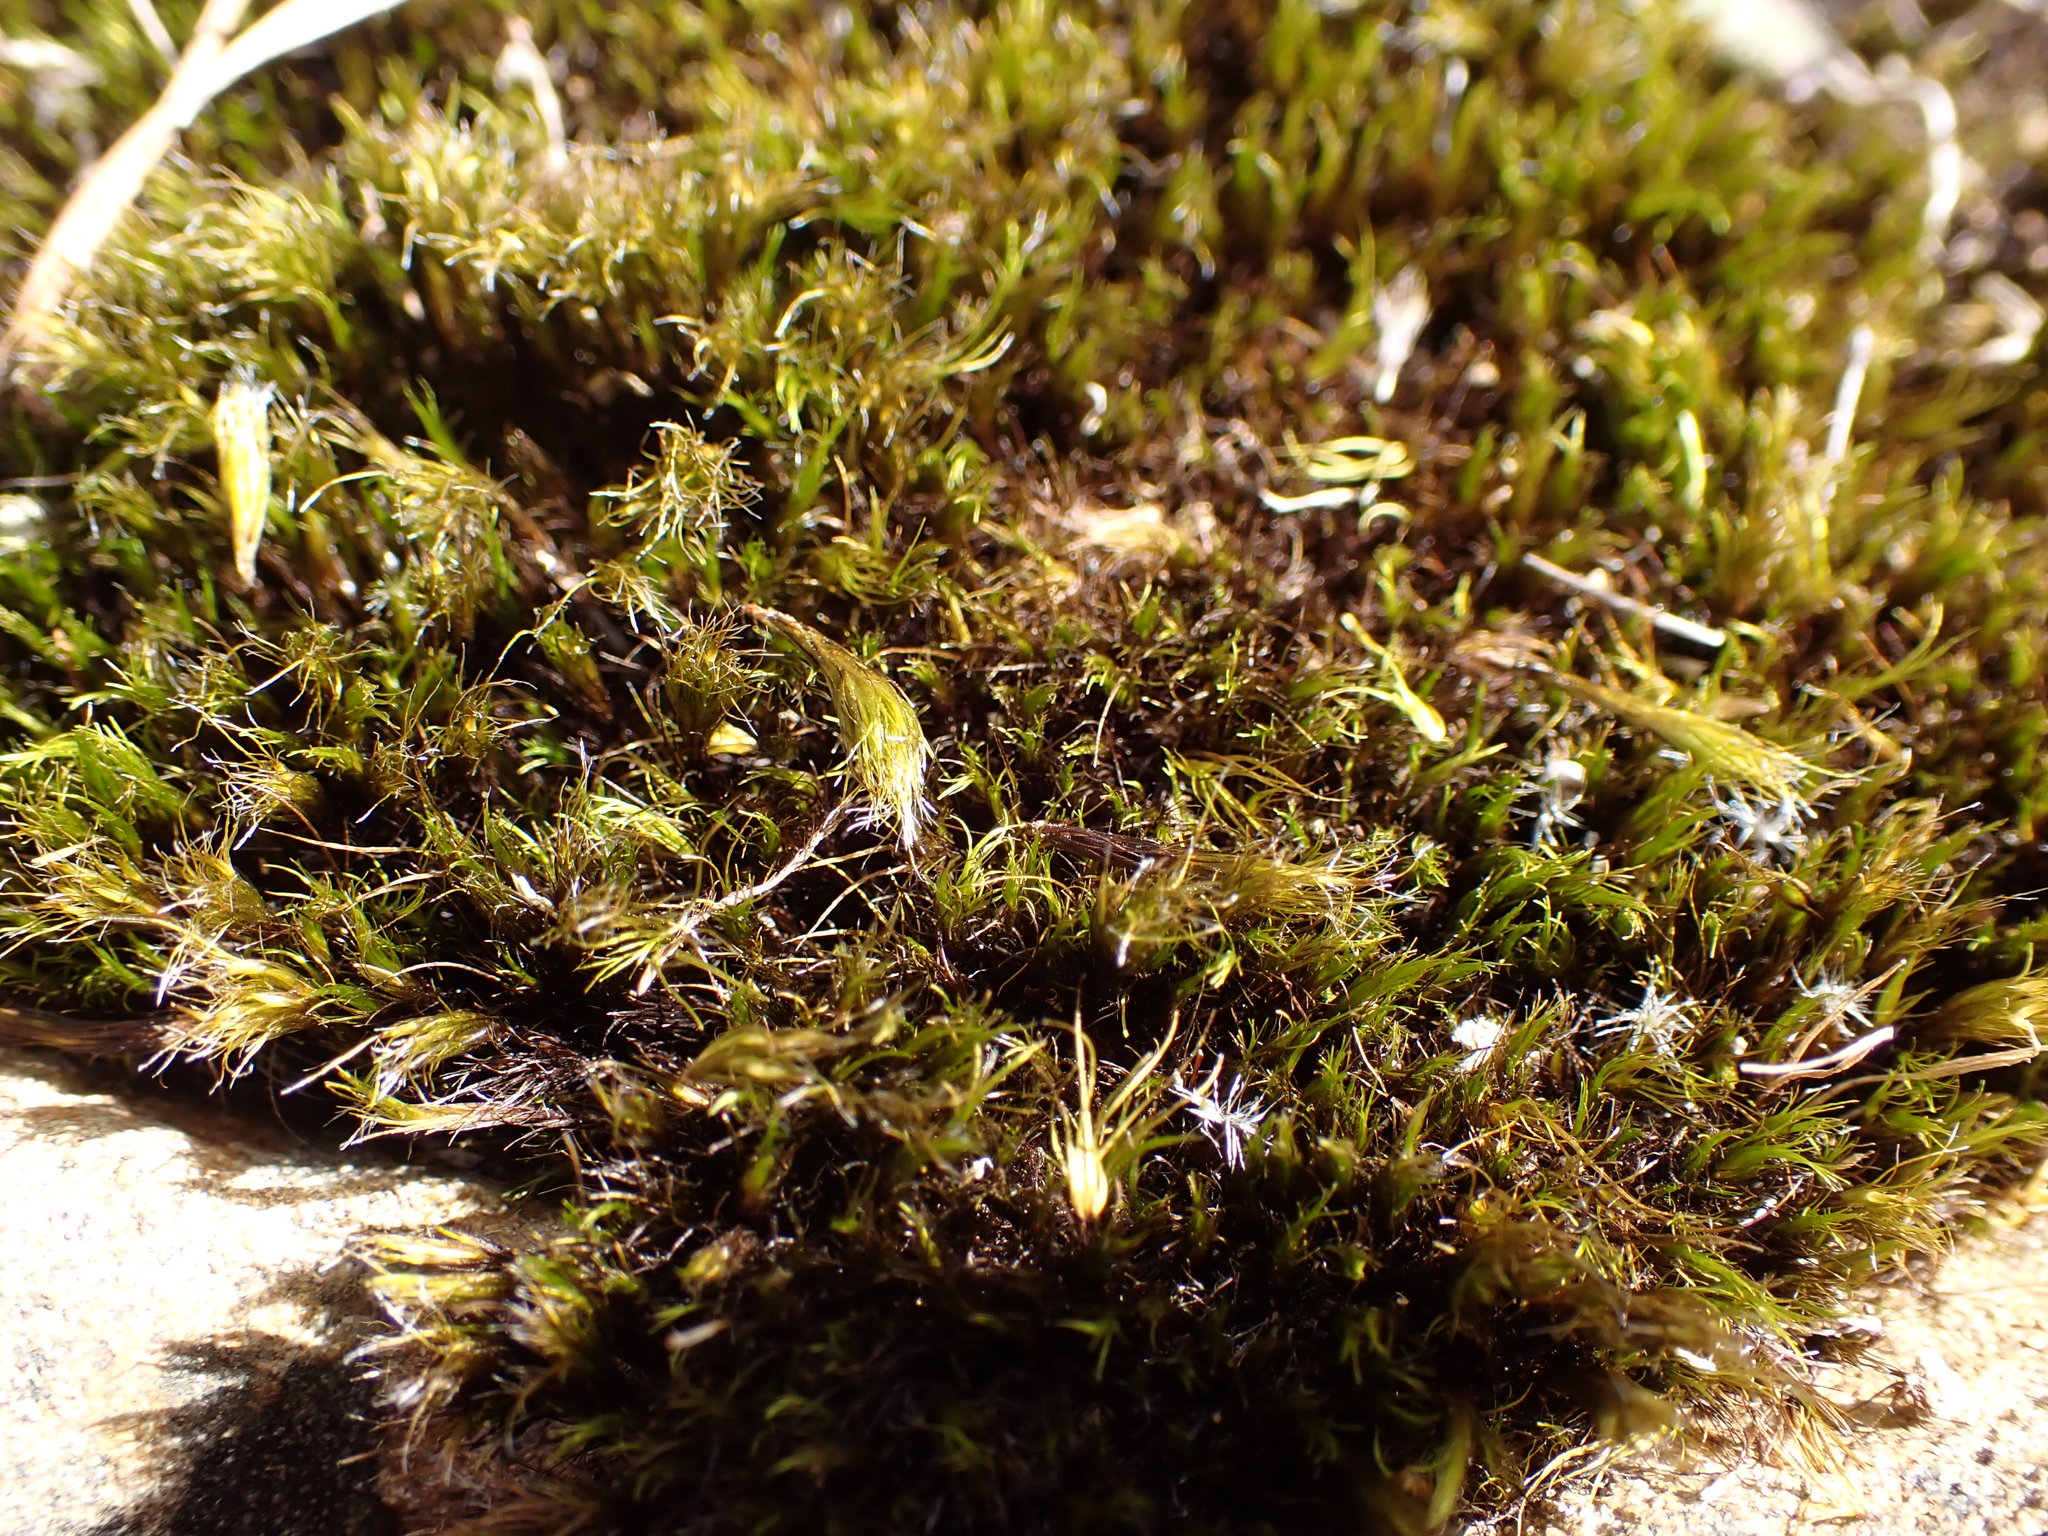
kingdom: Plantae
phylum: Bryophyta
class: Bryopsida
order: Dicranales
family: Leucobryaceae
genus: Campylopus
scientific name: Campylopus clavatus
